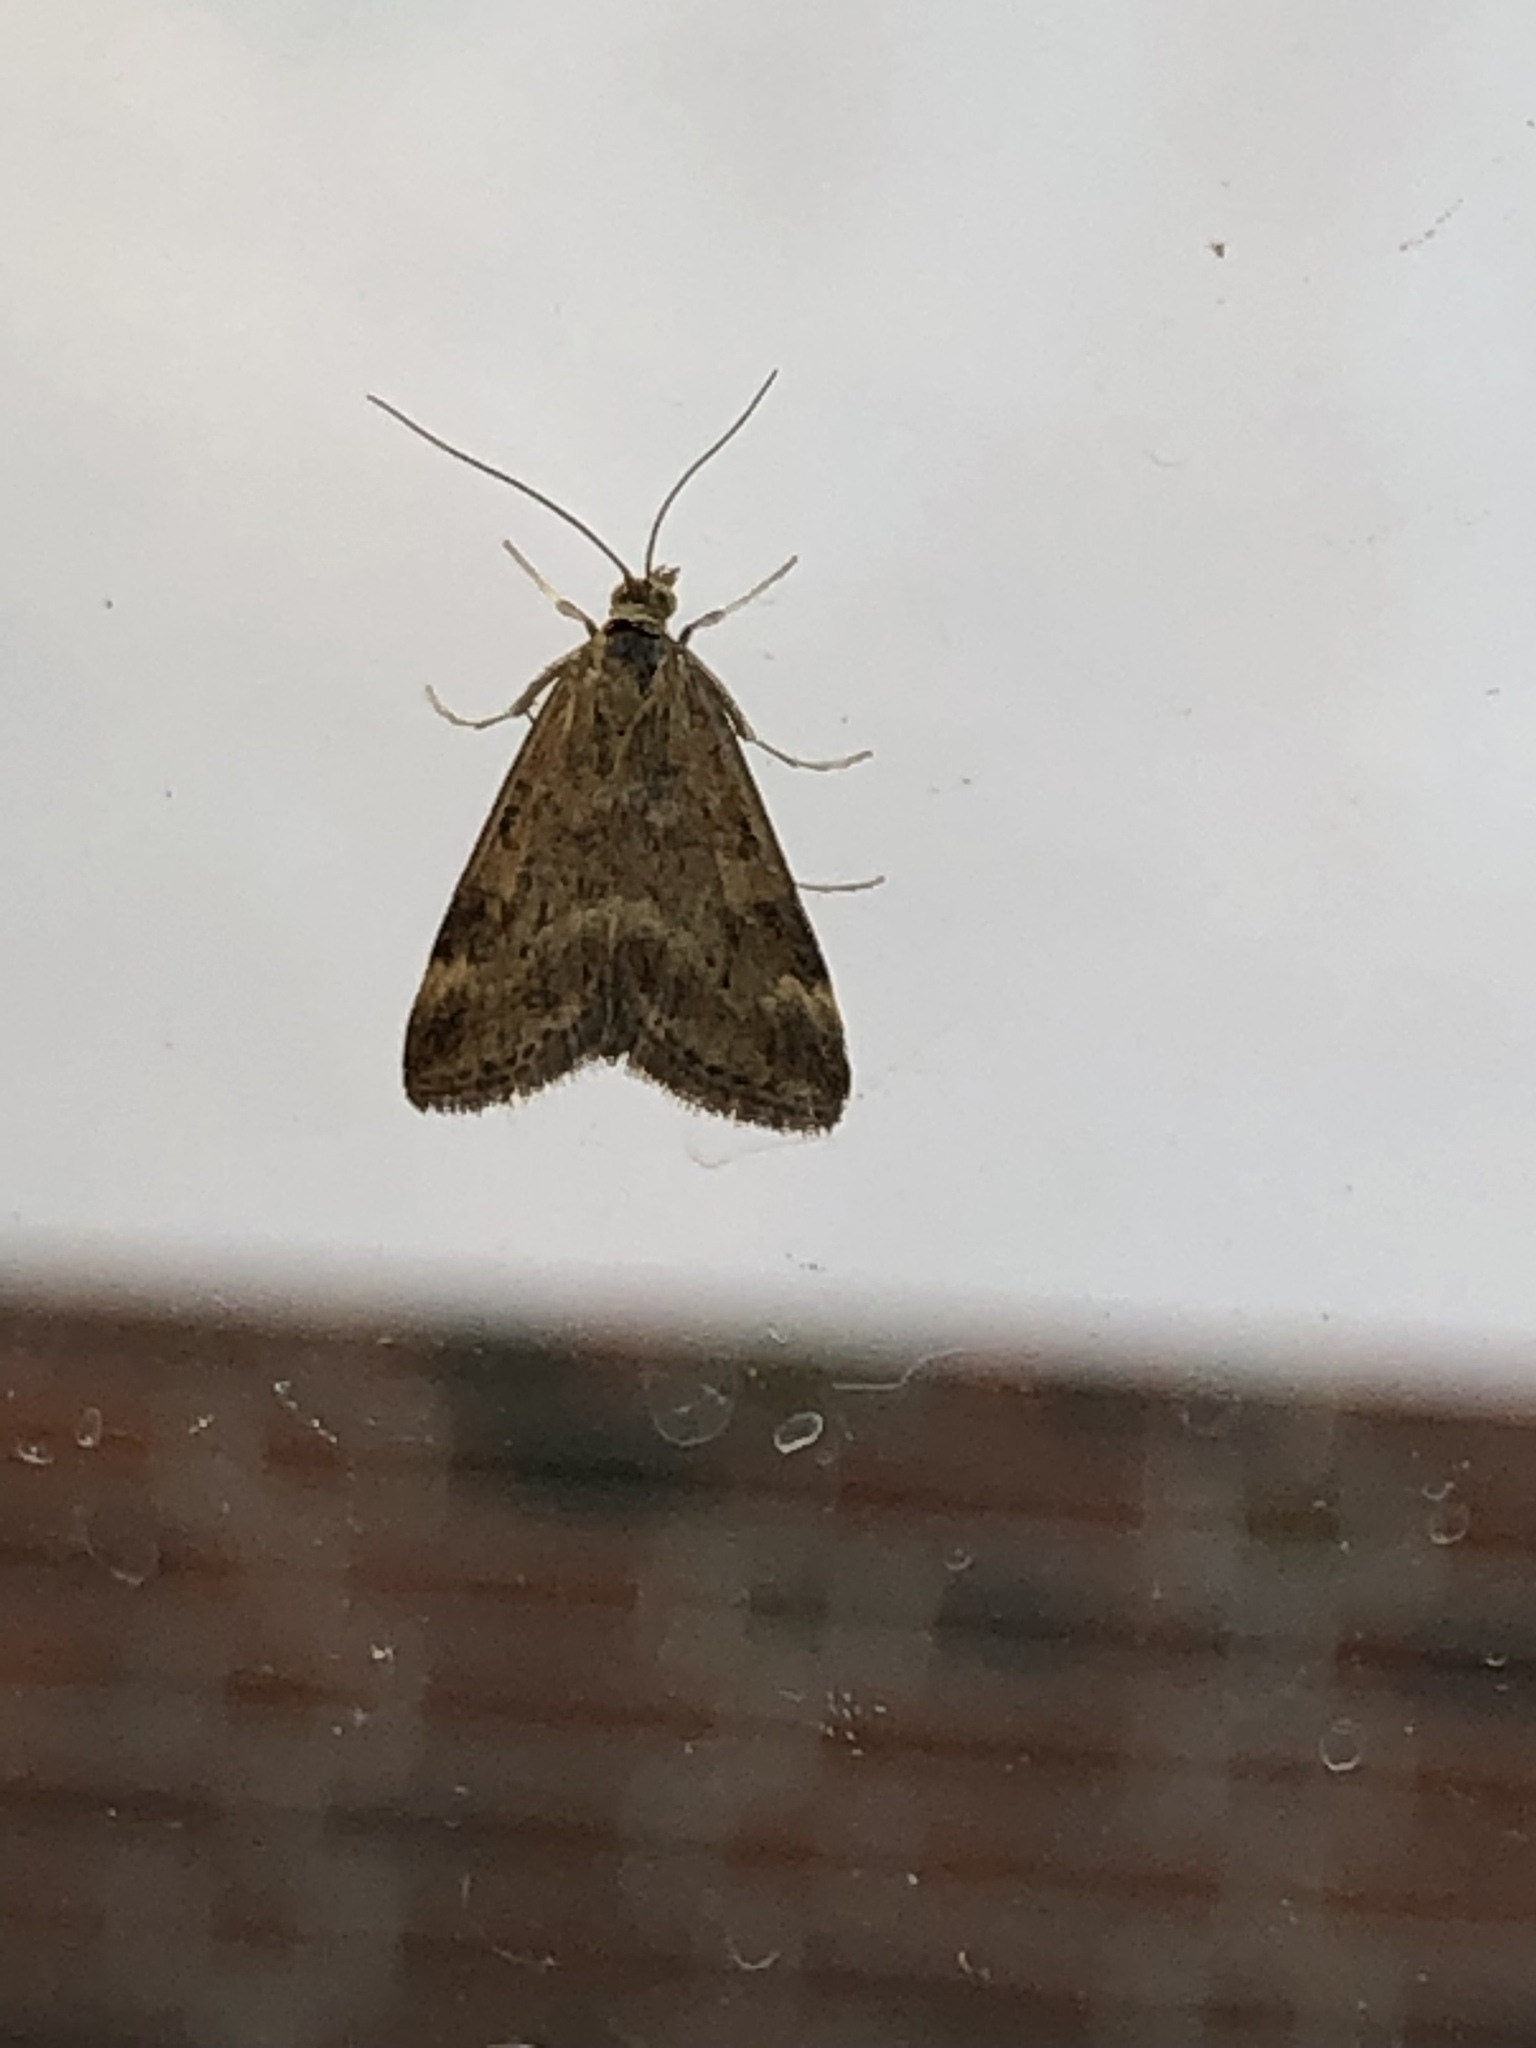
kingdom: Animalia
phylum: Arthropoda
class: Insecta
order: Lepidoptera
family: Crambidae
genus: Pyrausta
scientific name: Pyrausta despicata
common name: Straw-barred pearl
